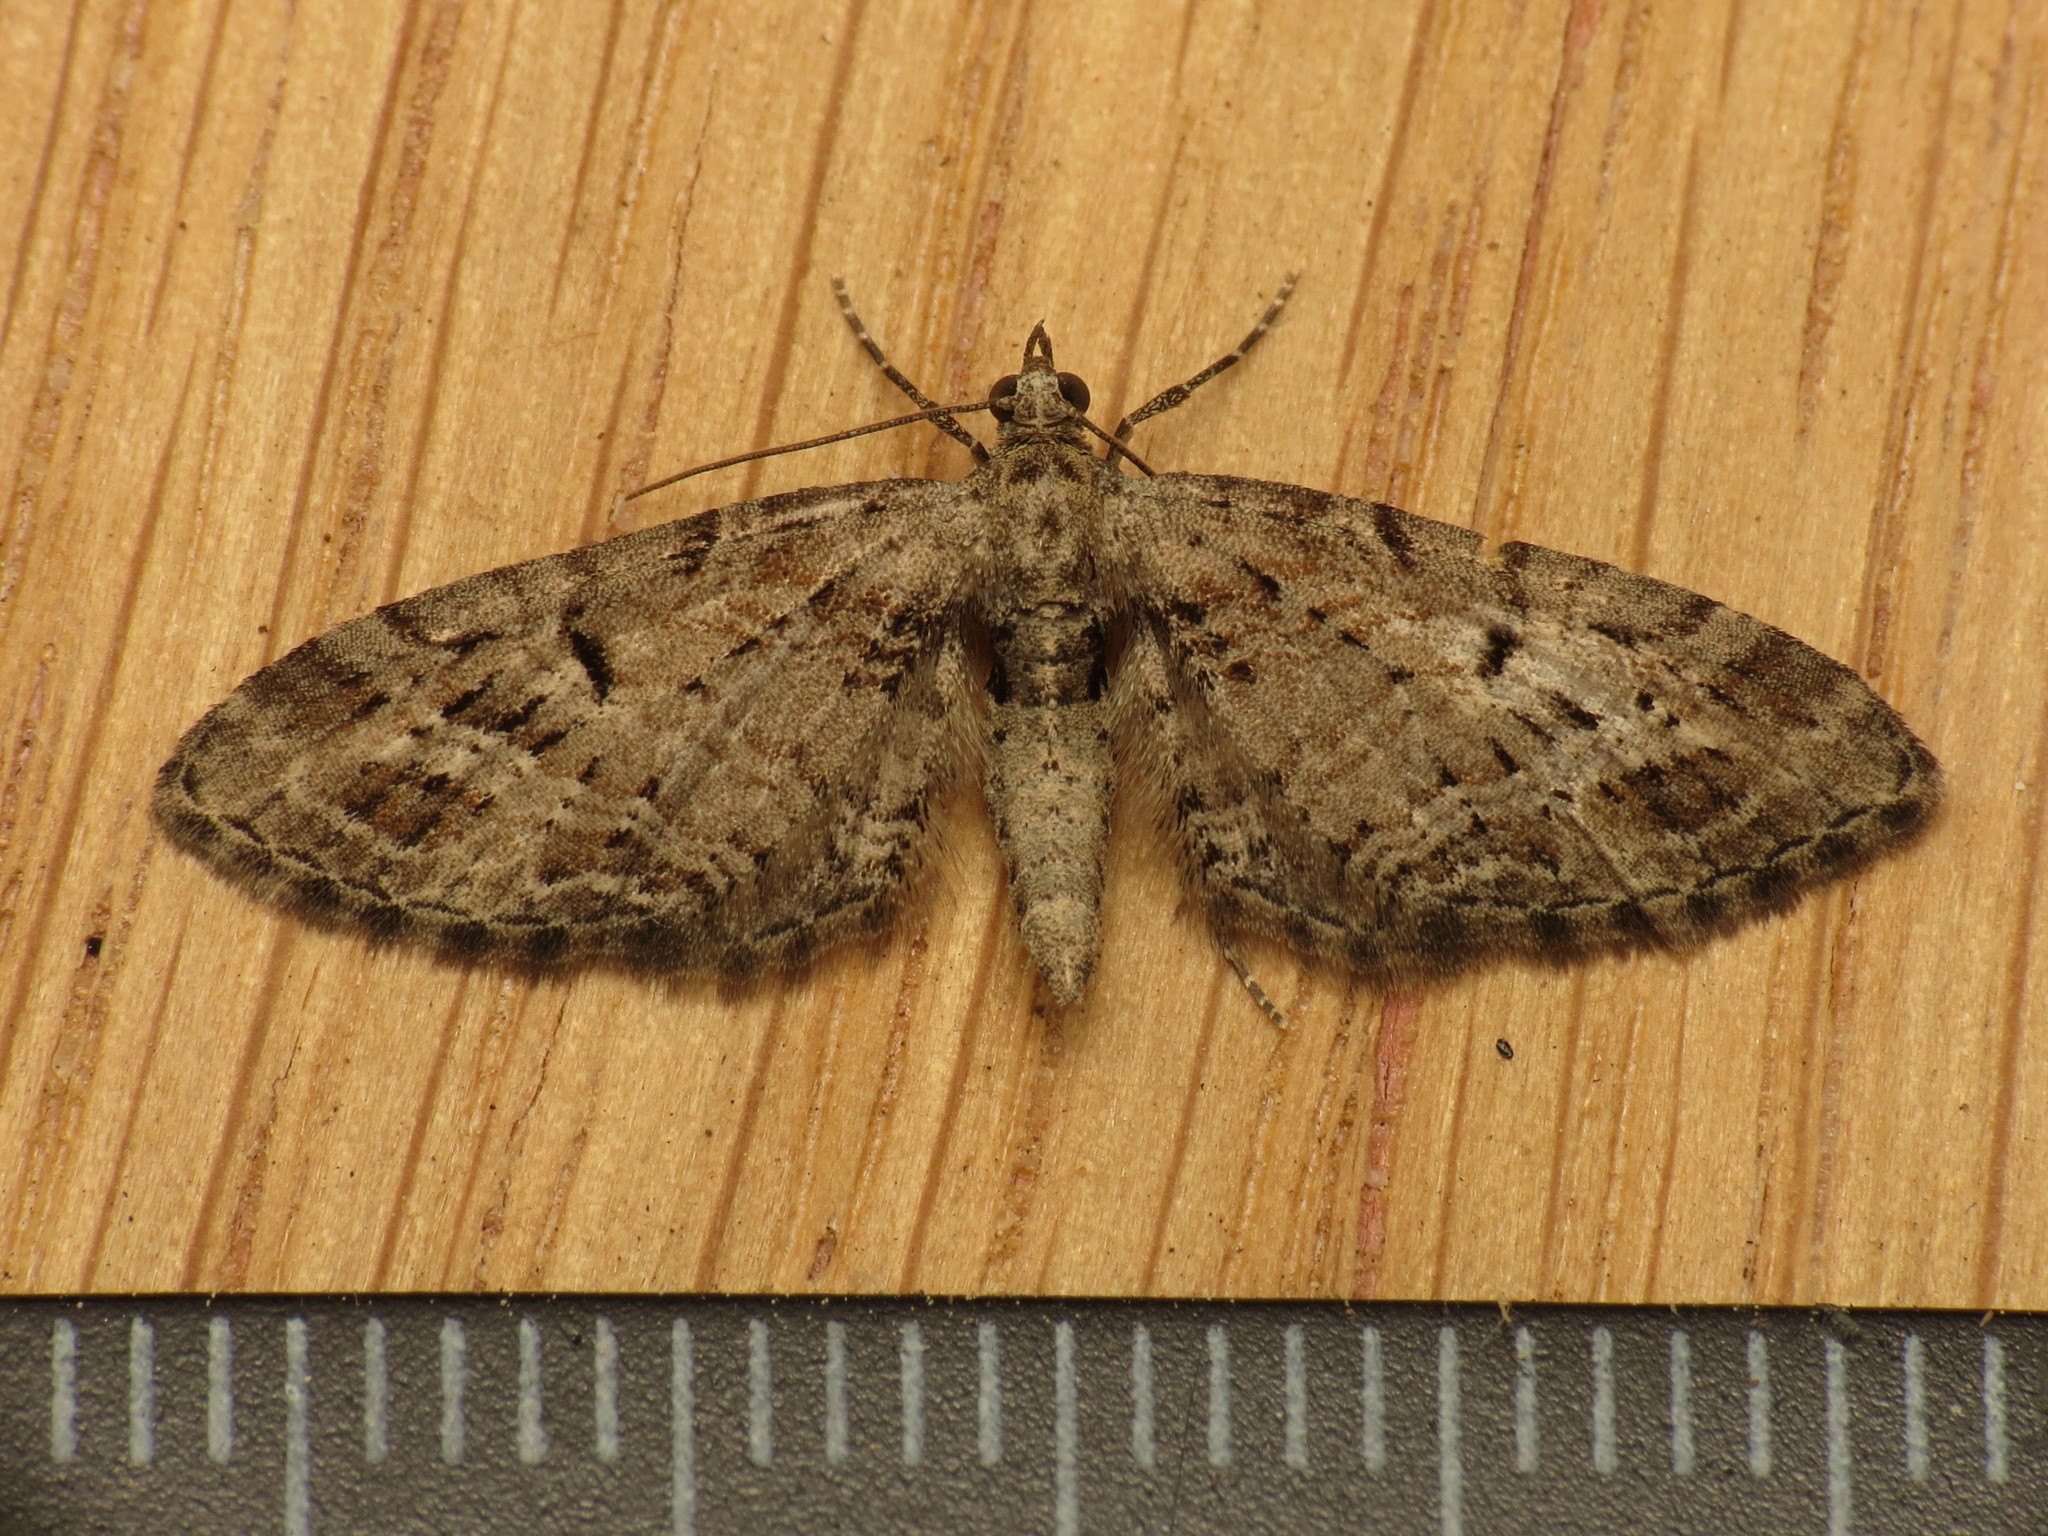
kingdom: Animalia
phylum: Arthropoda
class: Insecta
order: Lepidoptera
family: Geometridae
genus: Eupithecia
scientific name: Eupithecia exiguata
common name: Mottled pug
